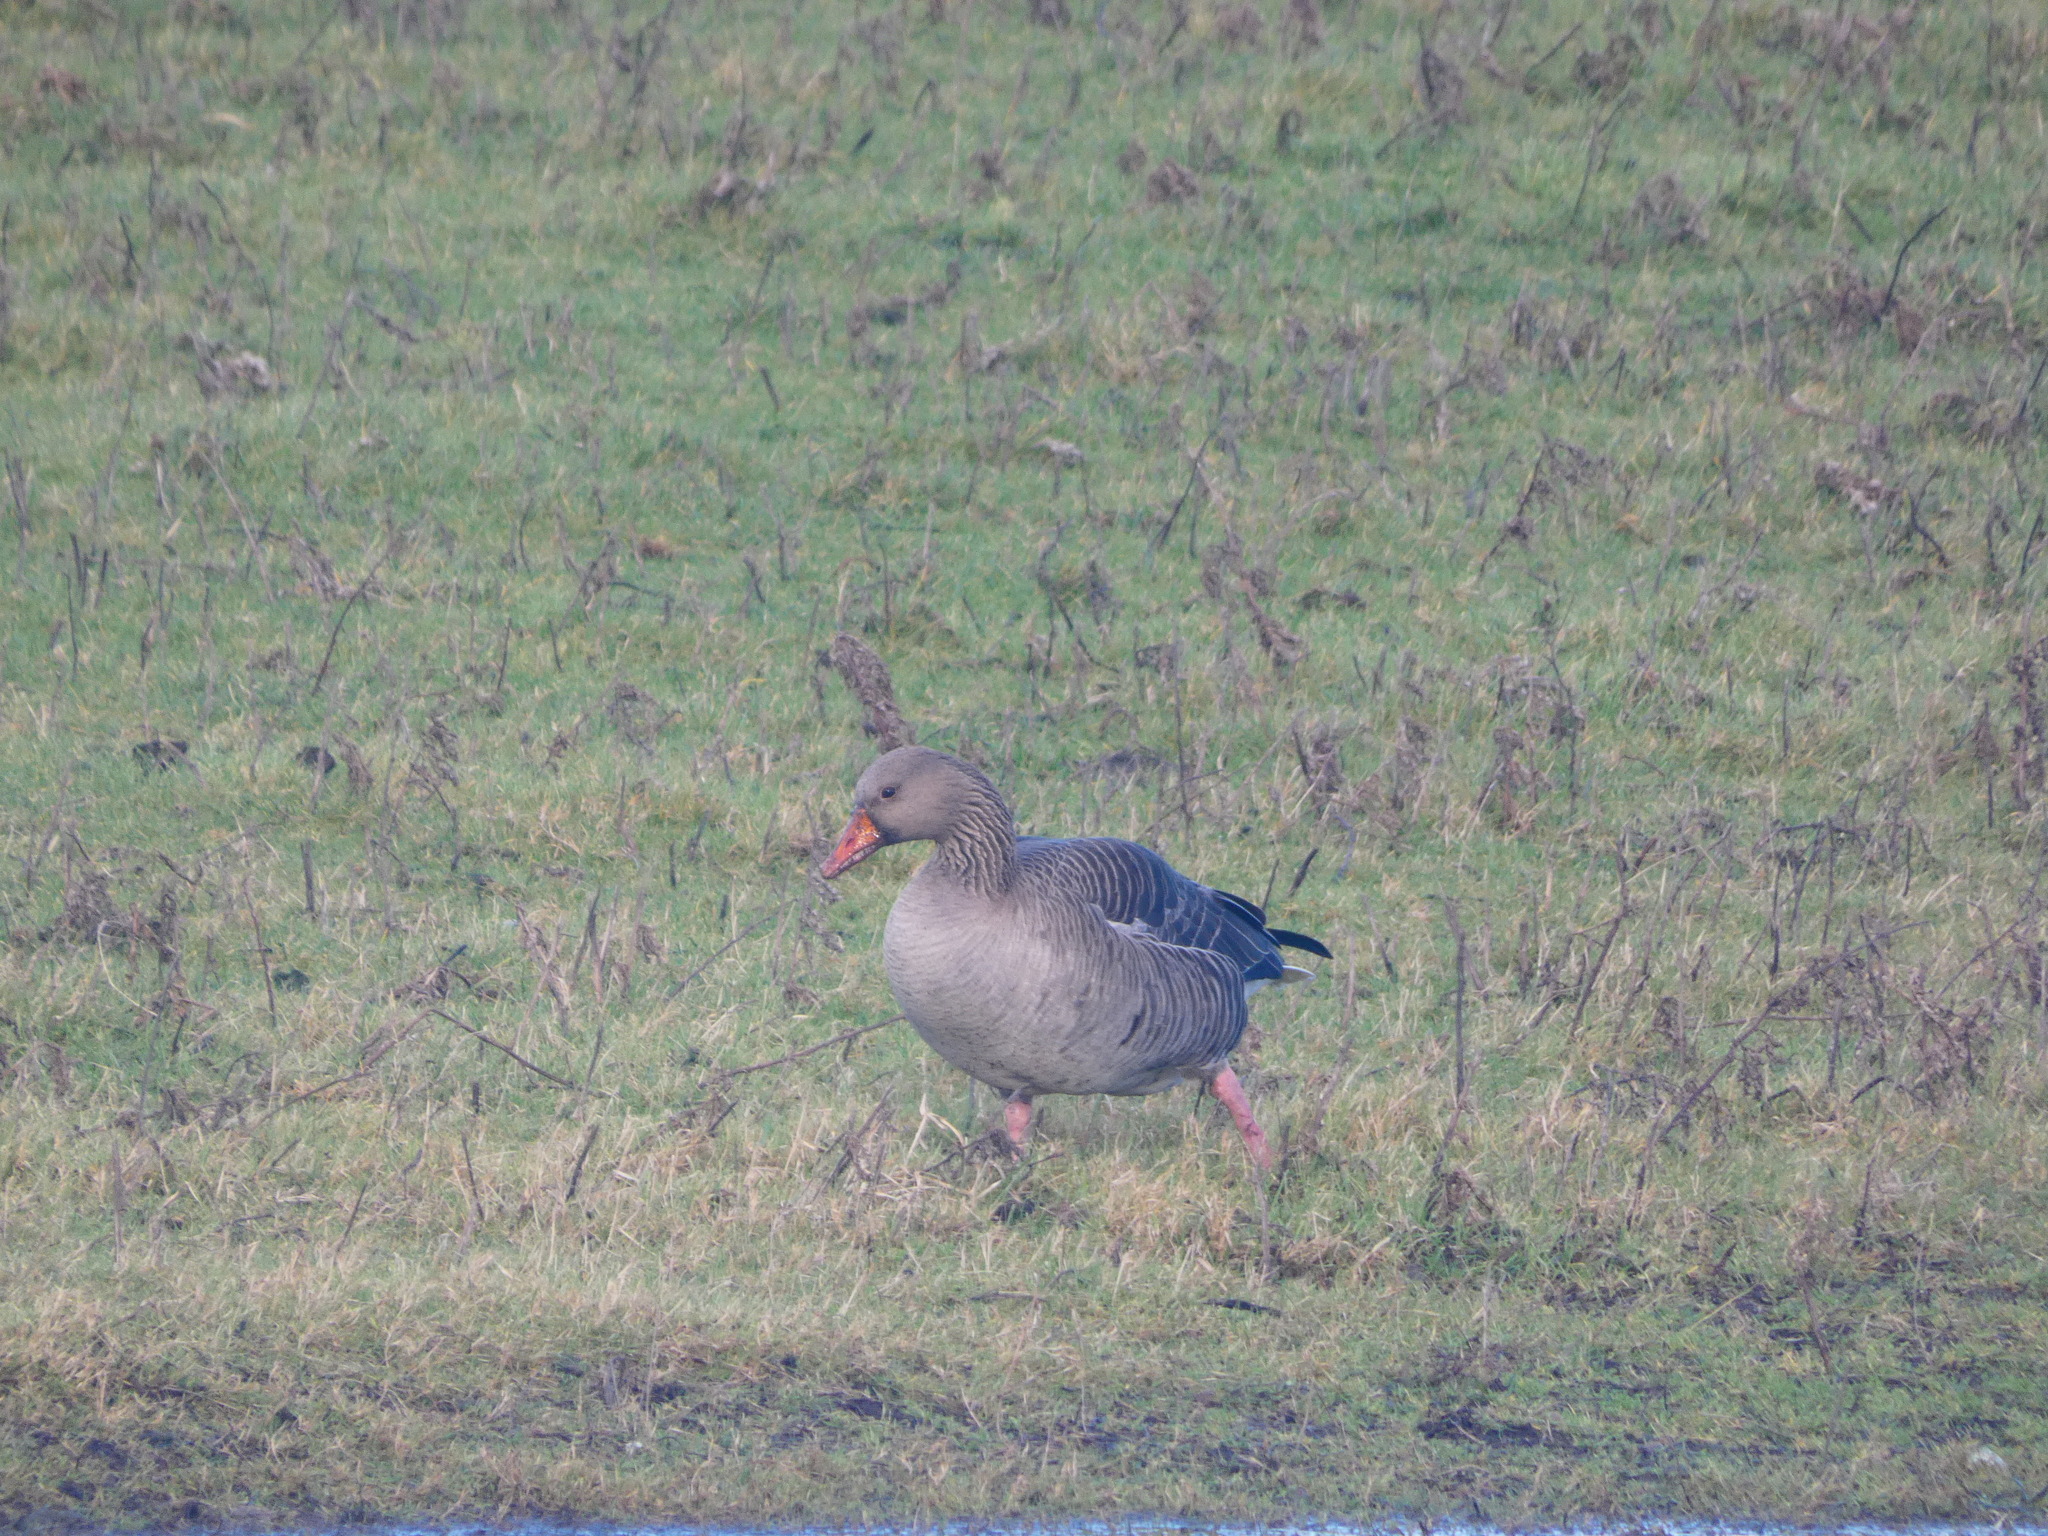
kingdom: Animalia
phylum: Chordata
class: Aves
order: Anseriformes
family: Anatidae
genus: Anser
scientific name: Anser anser
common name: Greylag goose
